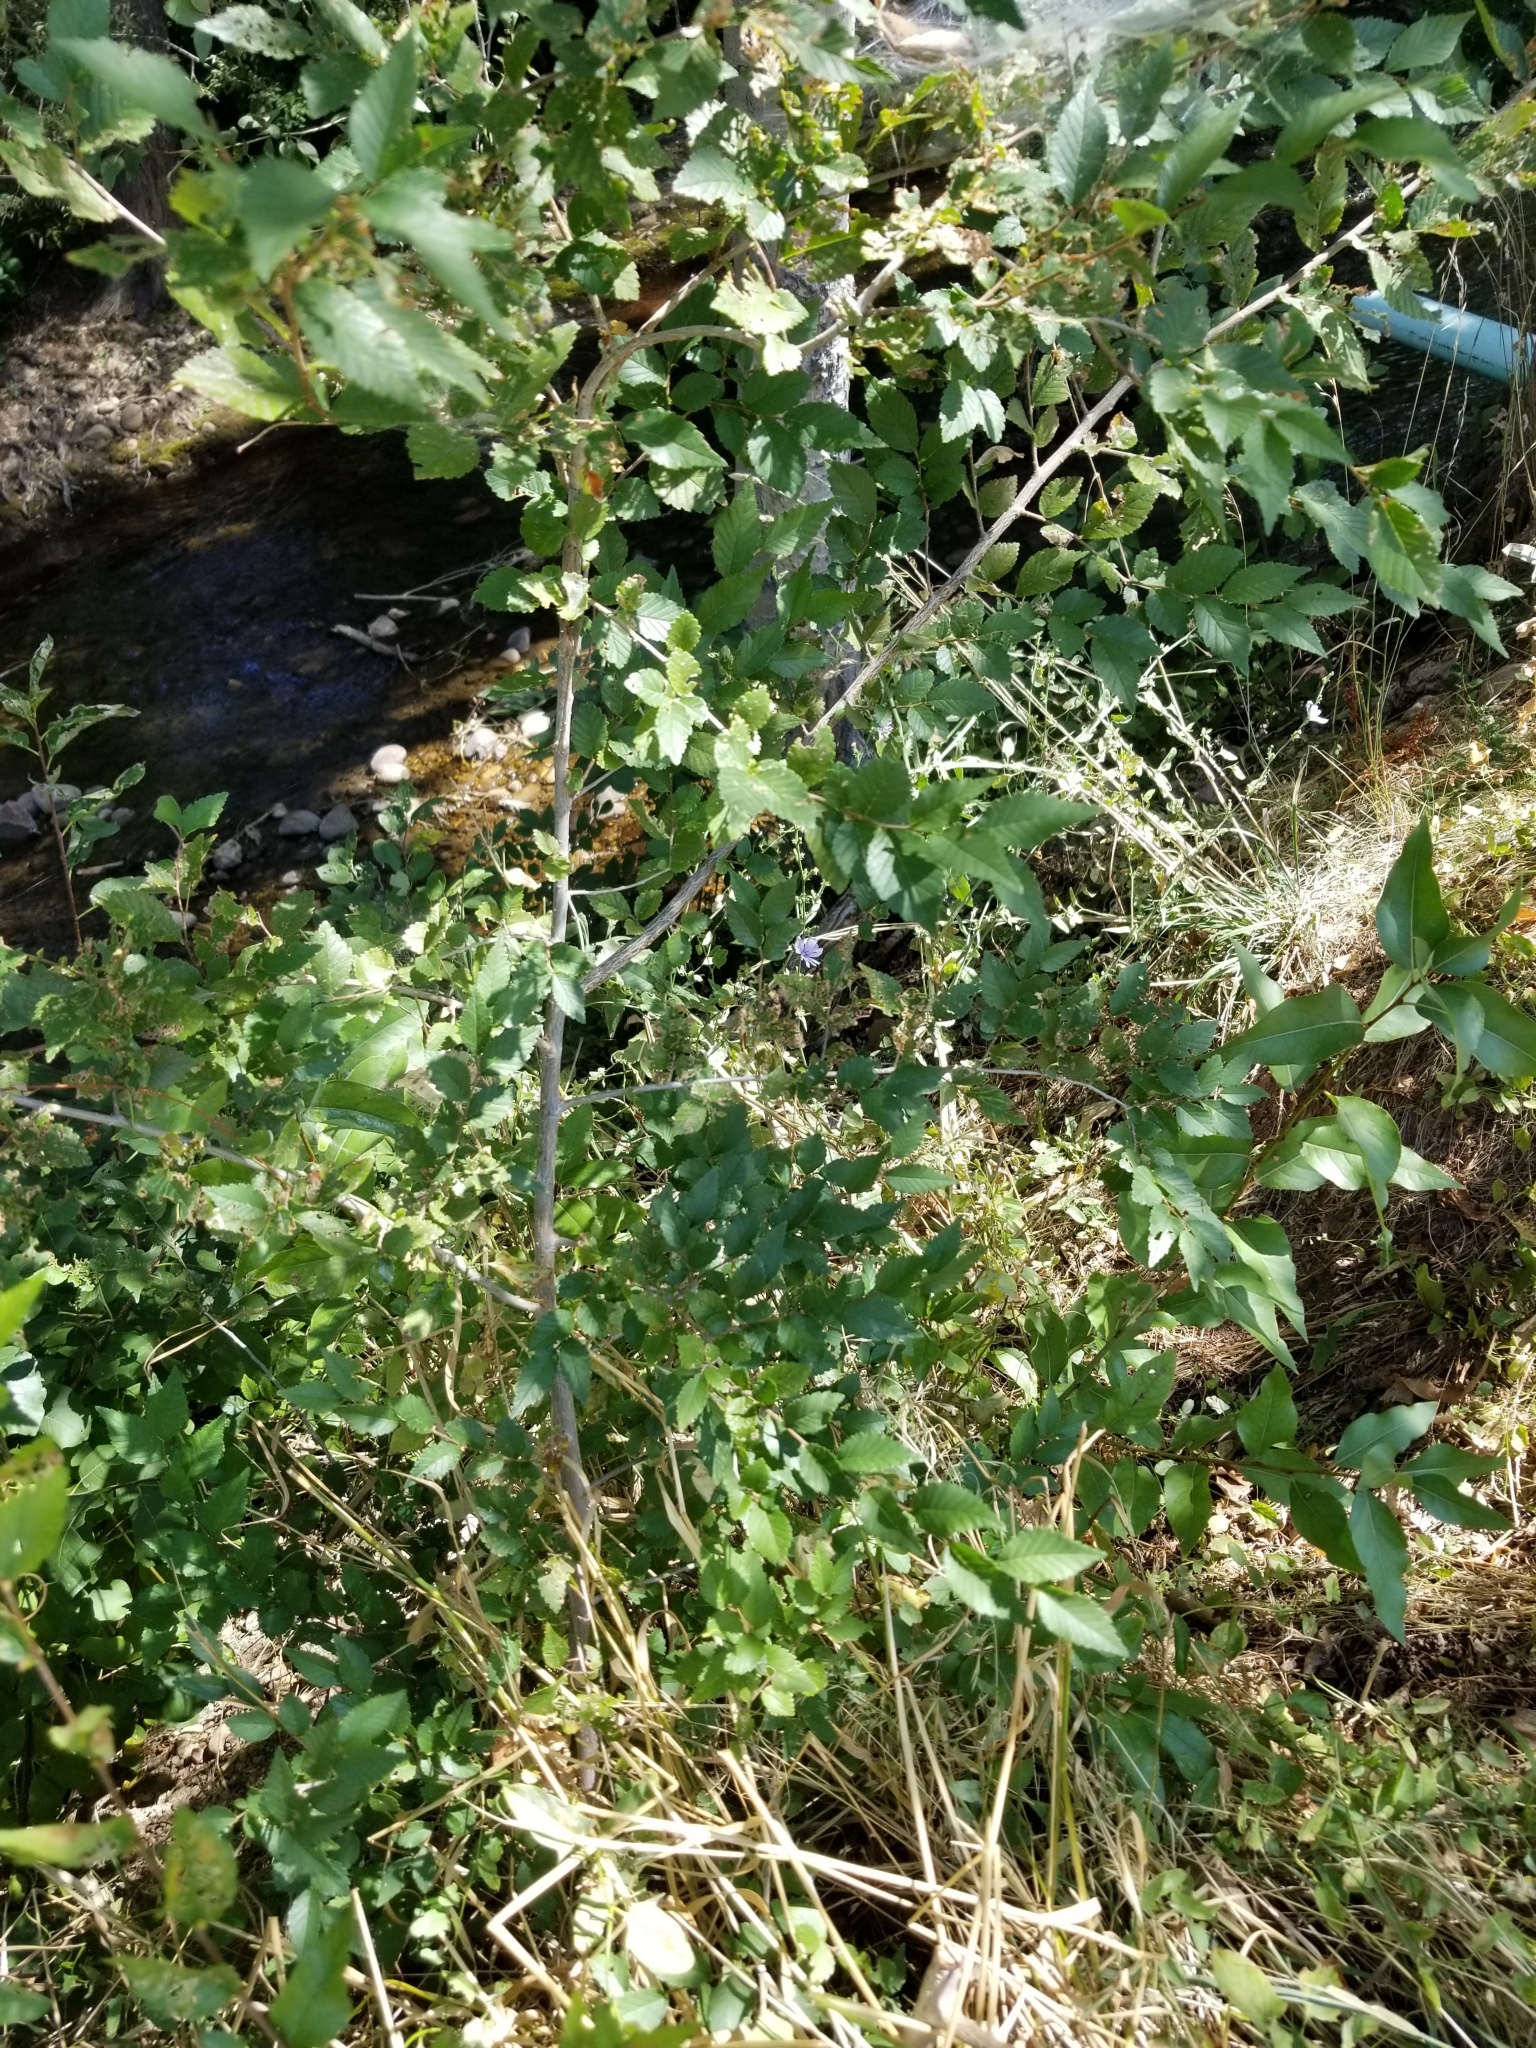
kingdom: Plantae
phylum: Tracheophyta
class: Magnoliopsida
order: Rosales
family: Ulmaceae
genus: Ulmus
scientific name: Ulmus pumila
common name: Siberian elm
